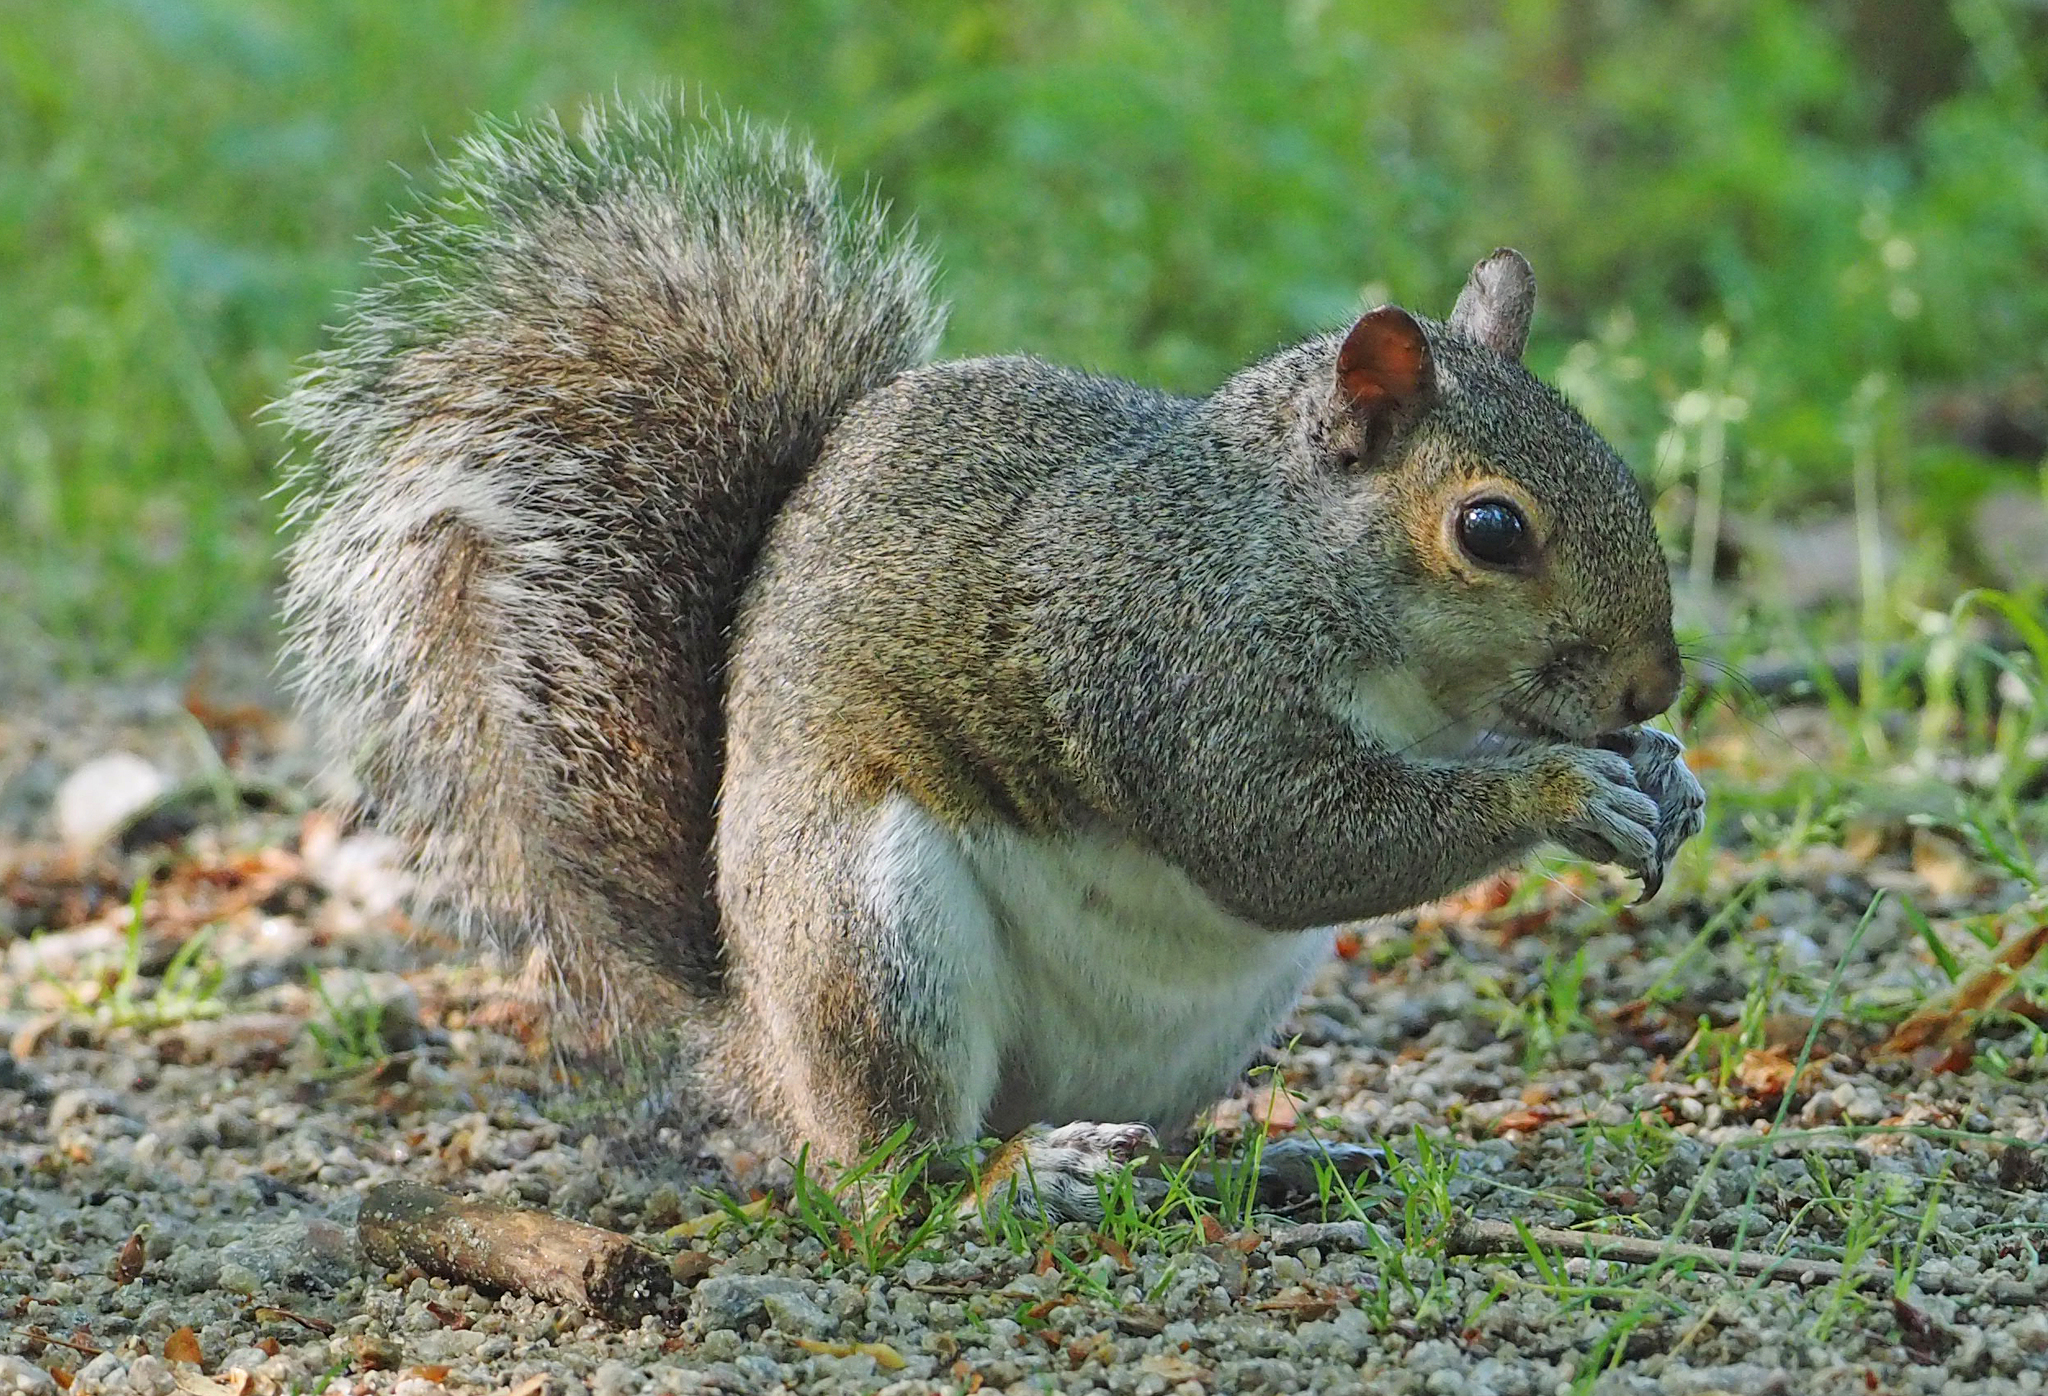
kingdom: Animalia
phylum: Chordata
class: Mammalia
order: Rodentia
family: Sciuridae
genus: Sciurus
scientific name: Sciurus carolinensis
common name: Eastern gray squirrel
